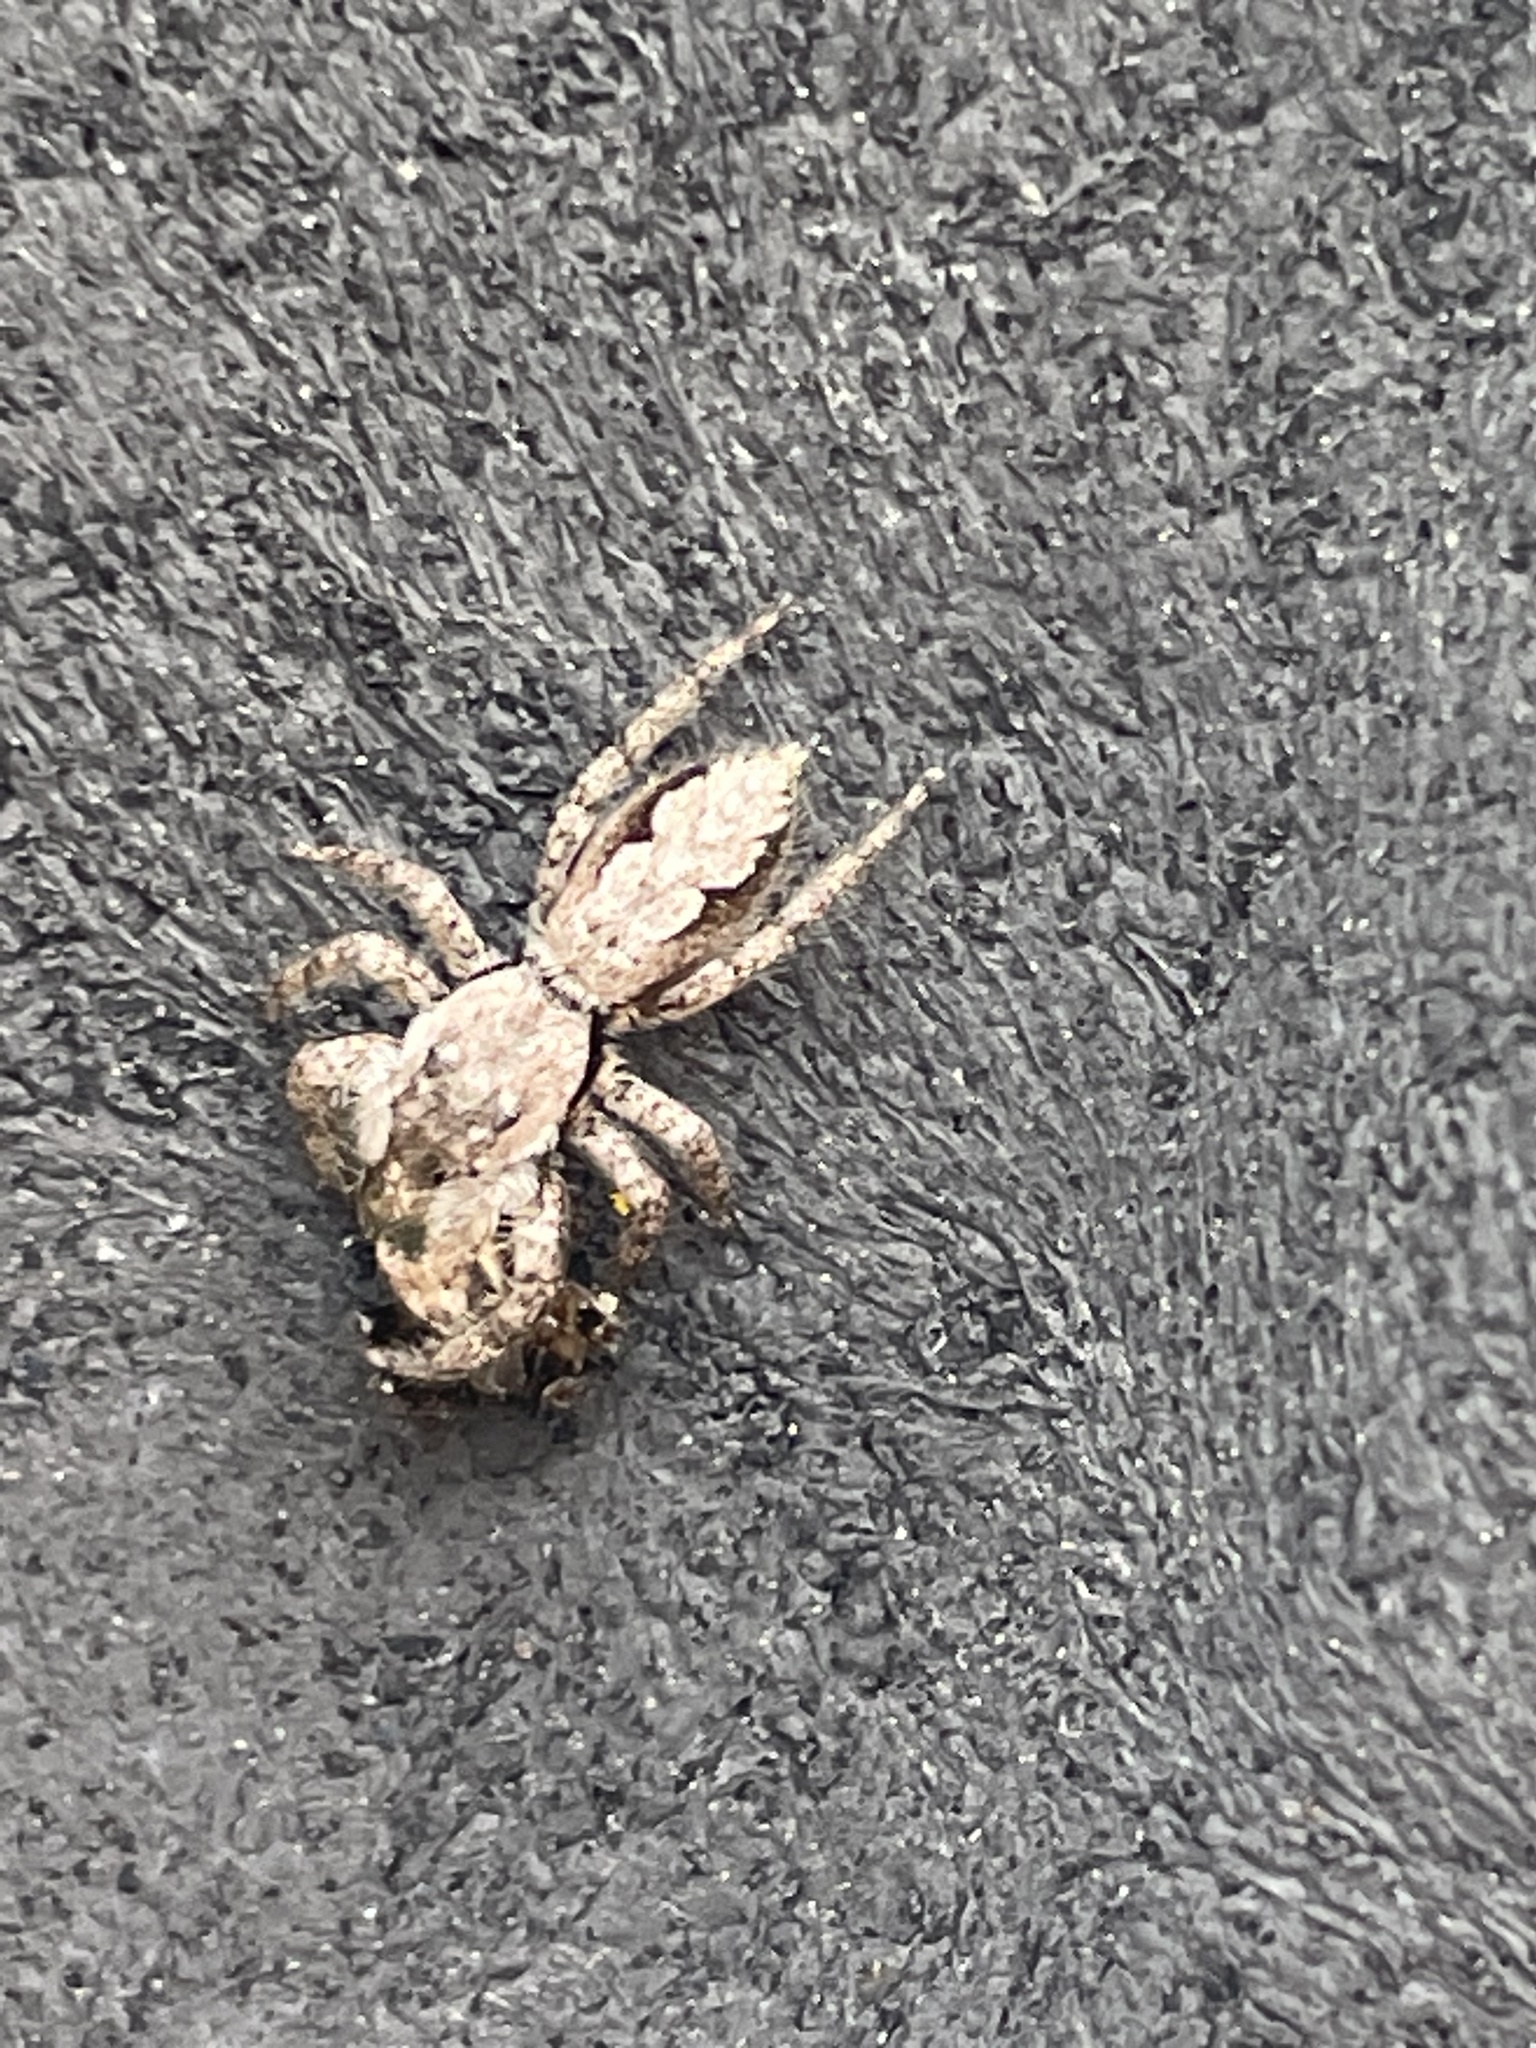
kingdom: Animalia
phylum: Arthropoda
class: Arachnida
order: Araneae
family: Salticidae
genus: Platycryptus
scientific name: Platycryptus undatus
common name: Tan jumping spider
